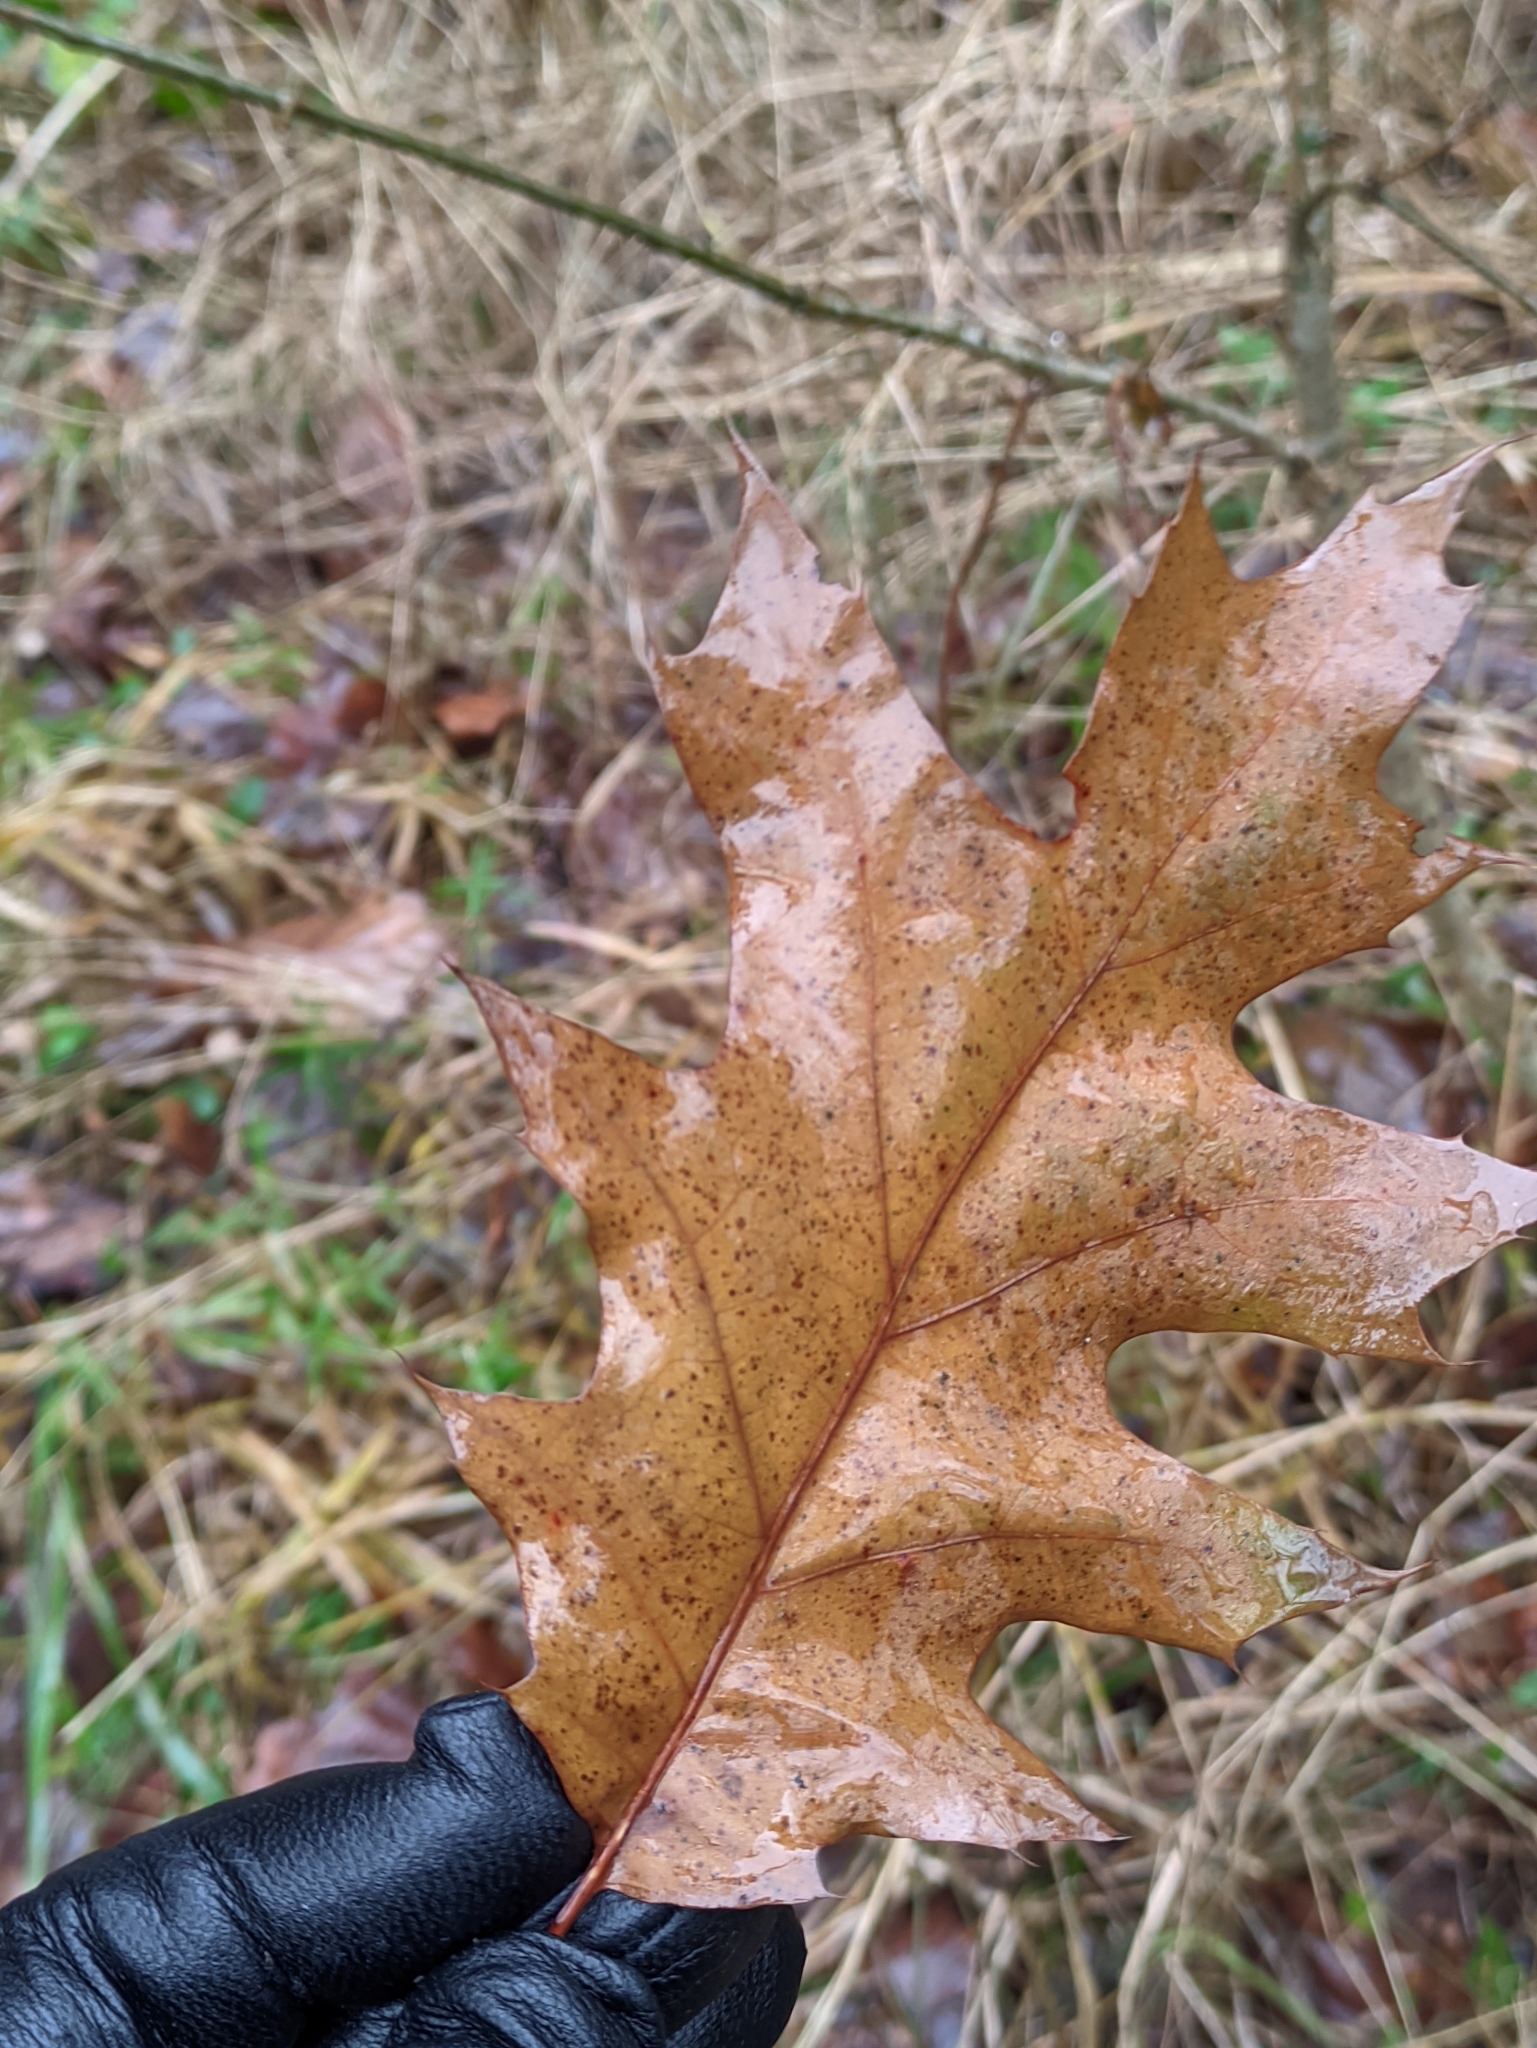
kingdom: Plantae
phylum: Tracheophyta
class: Magnoliopsida
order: Fagales
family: Fagaceae
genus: Quercus
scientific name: Quercus rubra
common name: Red oak
